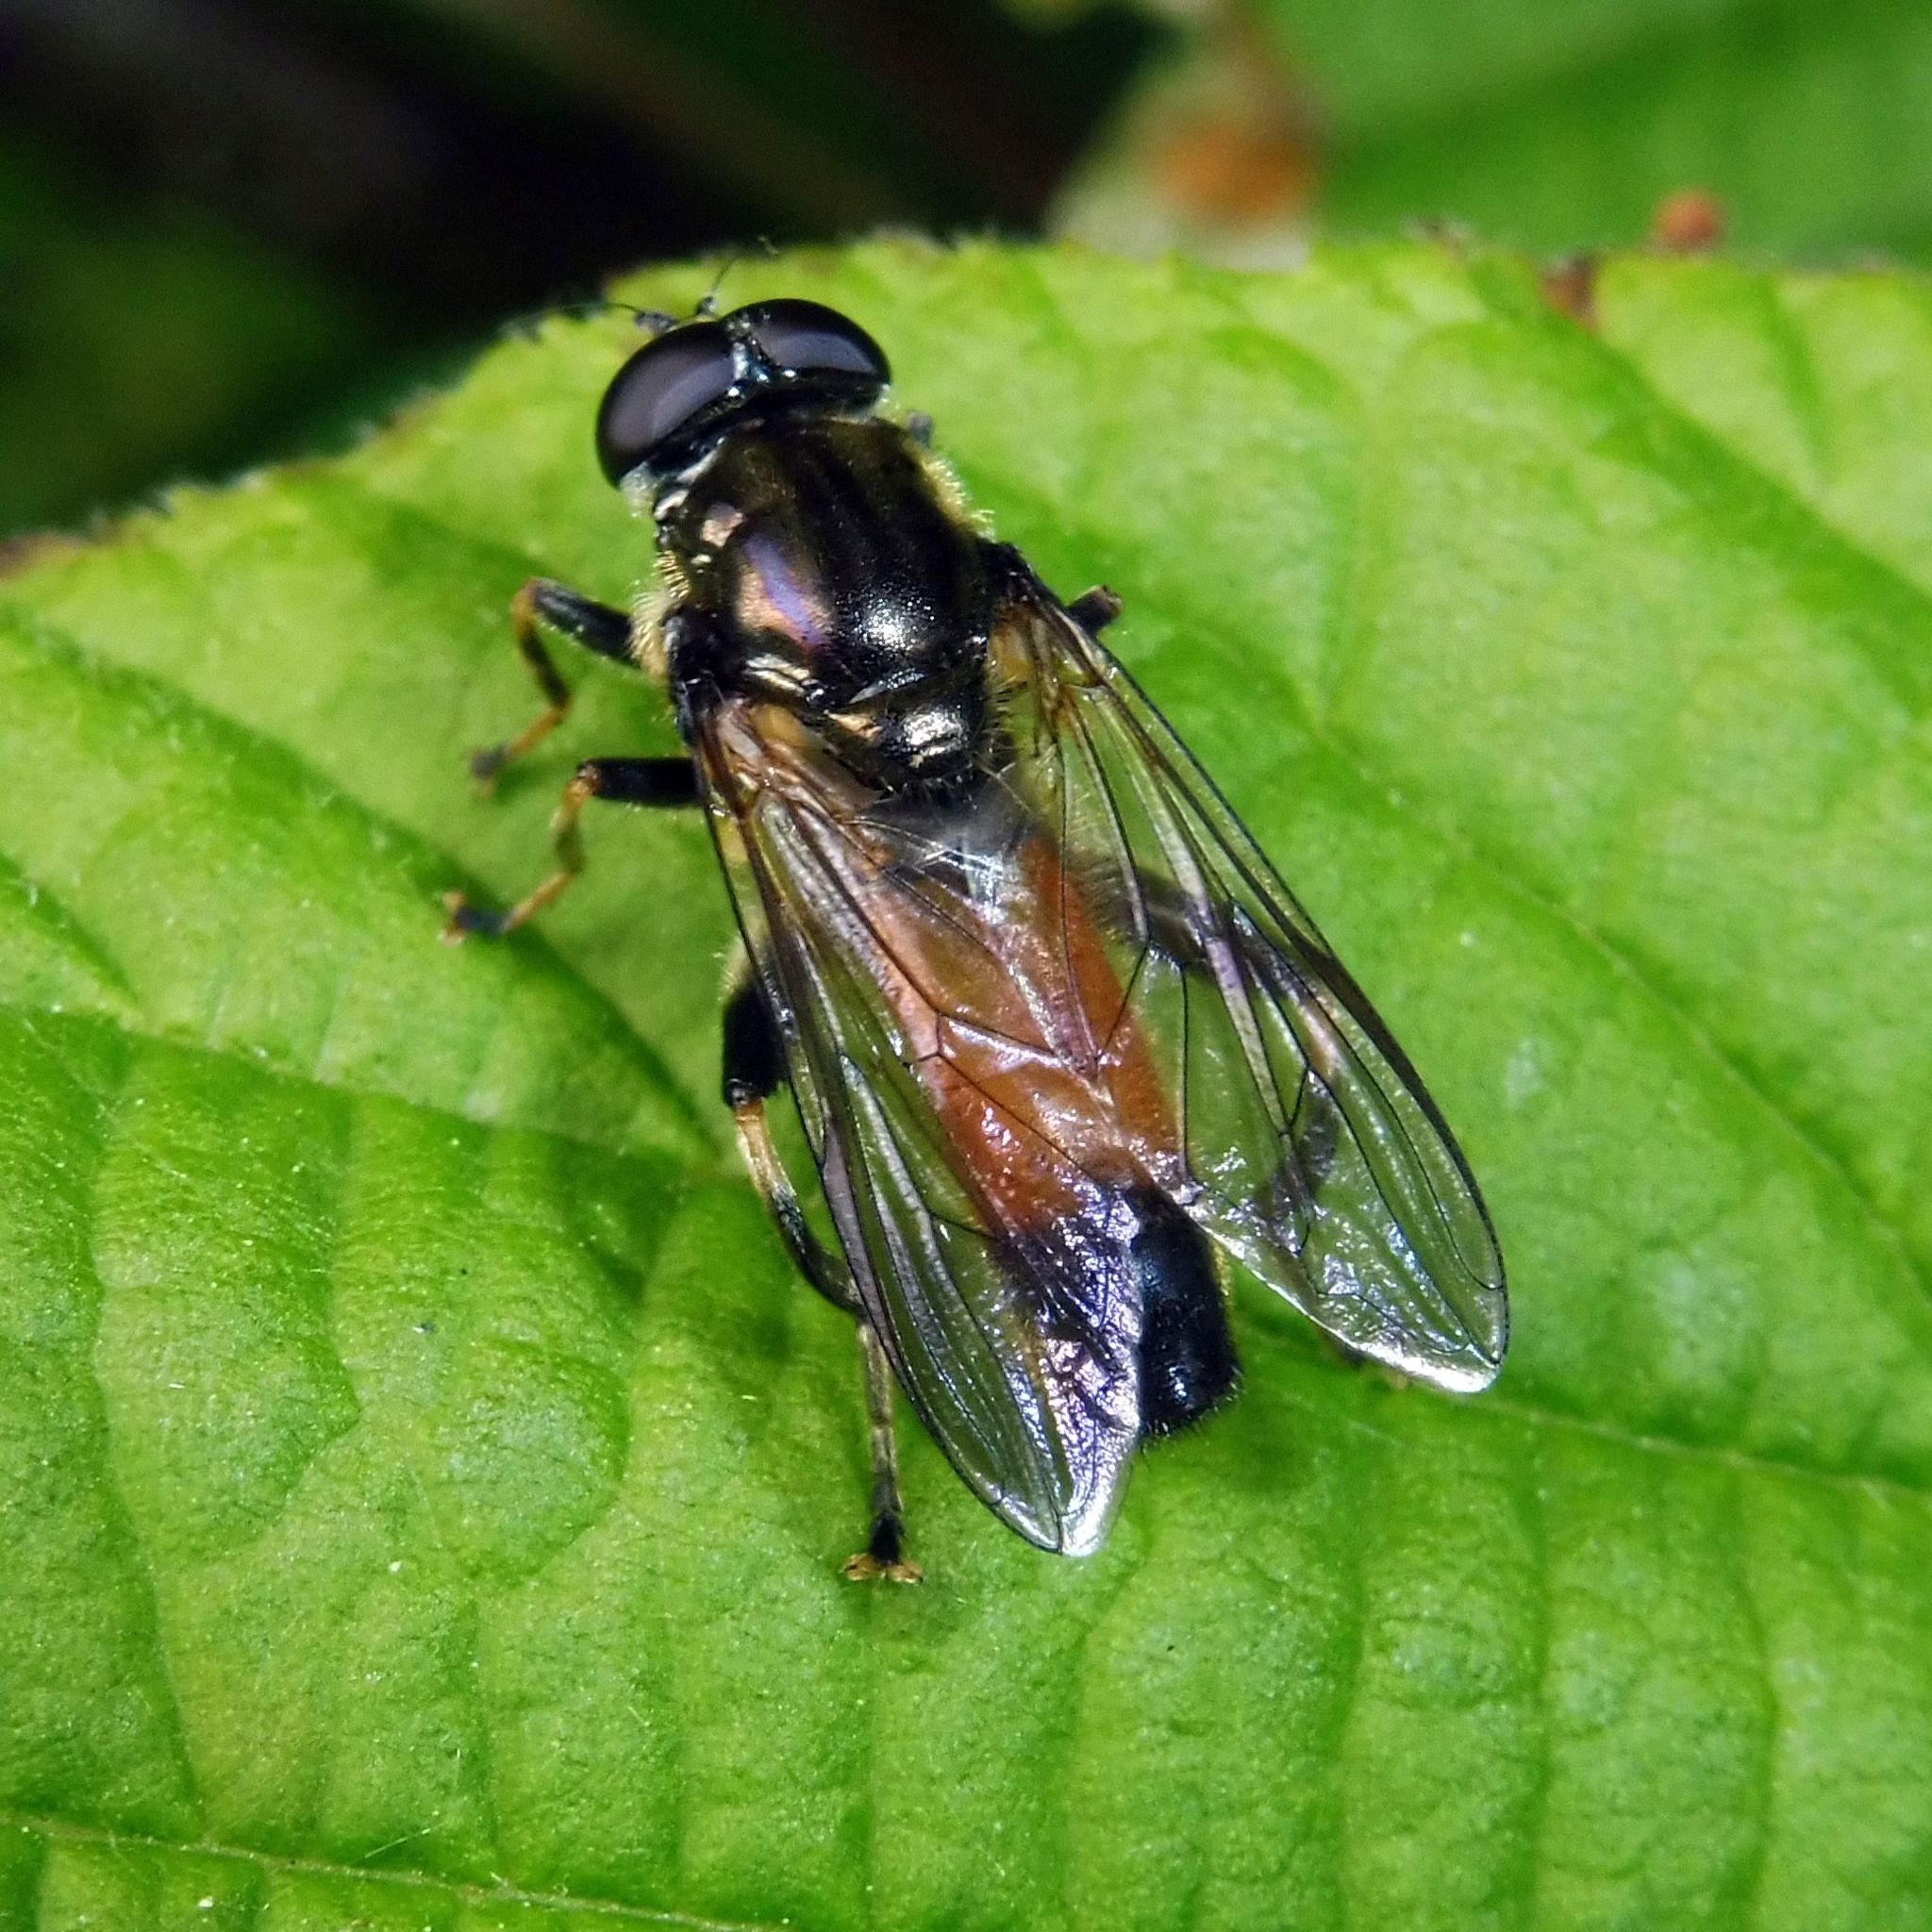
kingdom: Animalia
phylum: Arthropoda
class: Insecta
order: Diptera
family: Syrphidae
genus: Xylota
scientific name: Xylota segnis
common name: Brown-toed forest fly
